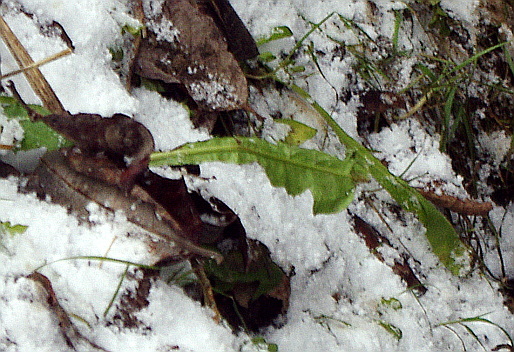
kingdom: Plantae
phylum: Tracheophyta
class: Magnoliopsida
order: Asterales
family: Asteraceae
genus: Taraxacum
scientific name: Taraxacum officinale
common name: Common dandelion
